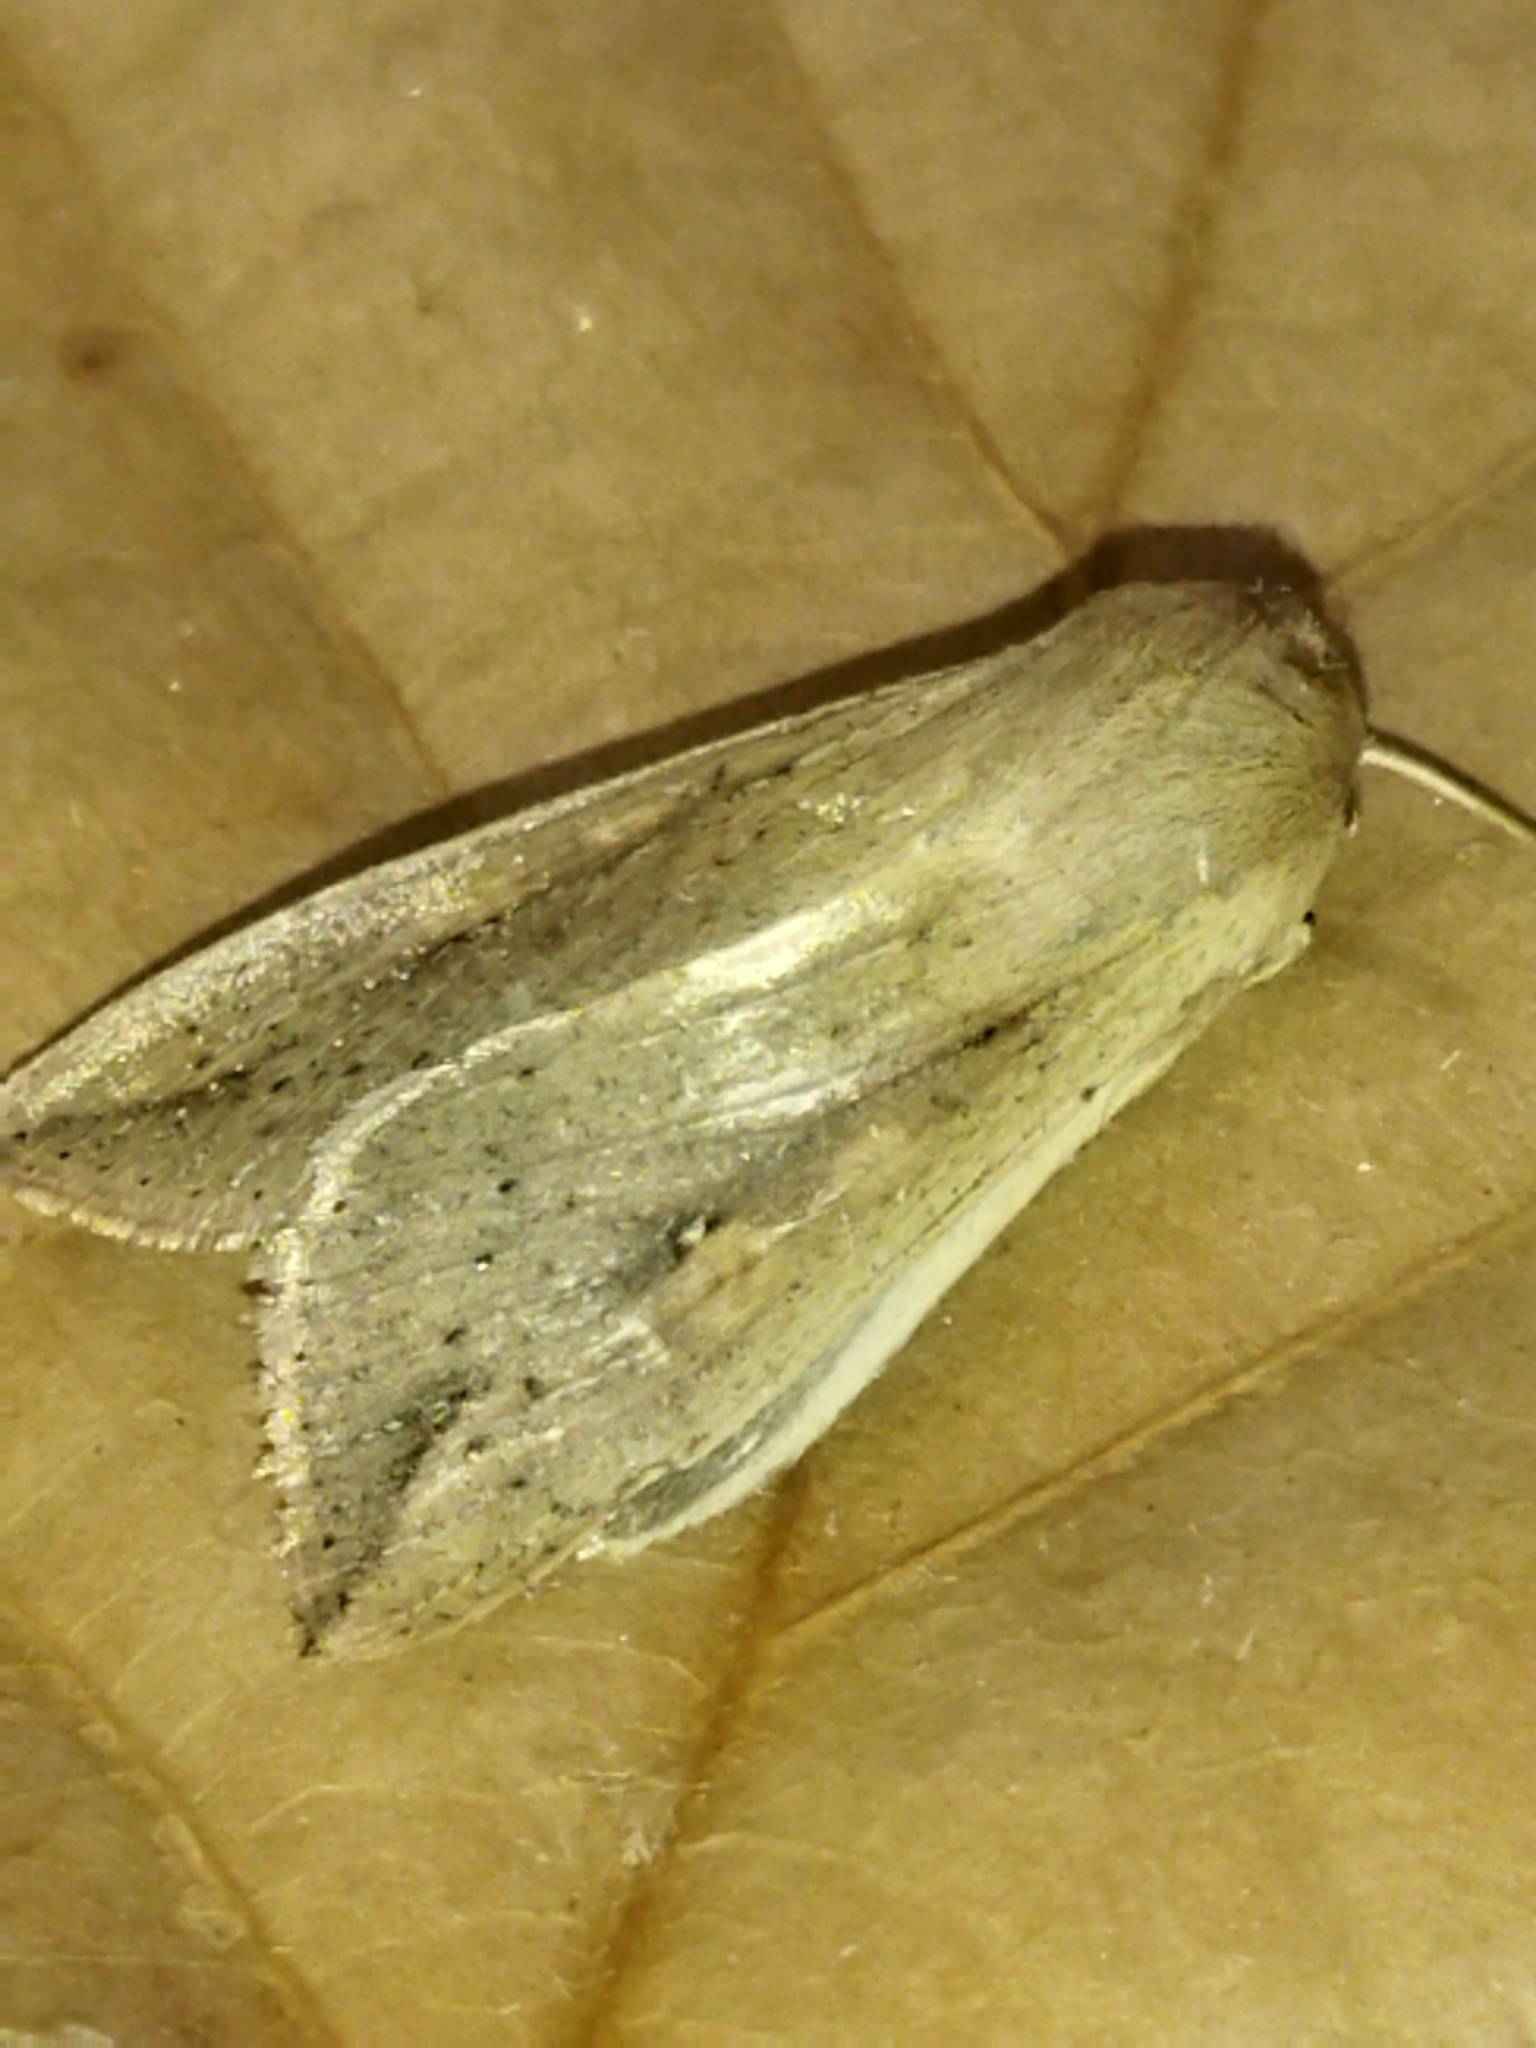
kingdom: Animalia
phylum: Arthropoda
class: Insecta
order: Lepidoptera
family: Noctuidae
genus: Mythimna
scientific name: Mythimna unipuncta
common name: White-speck
